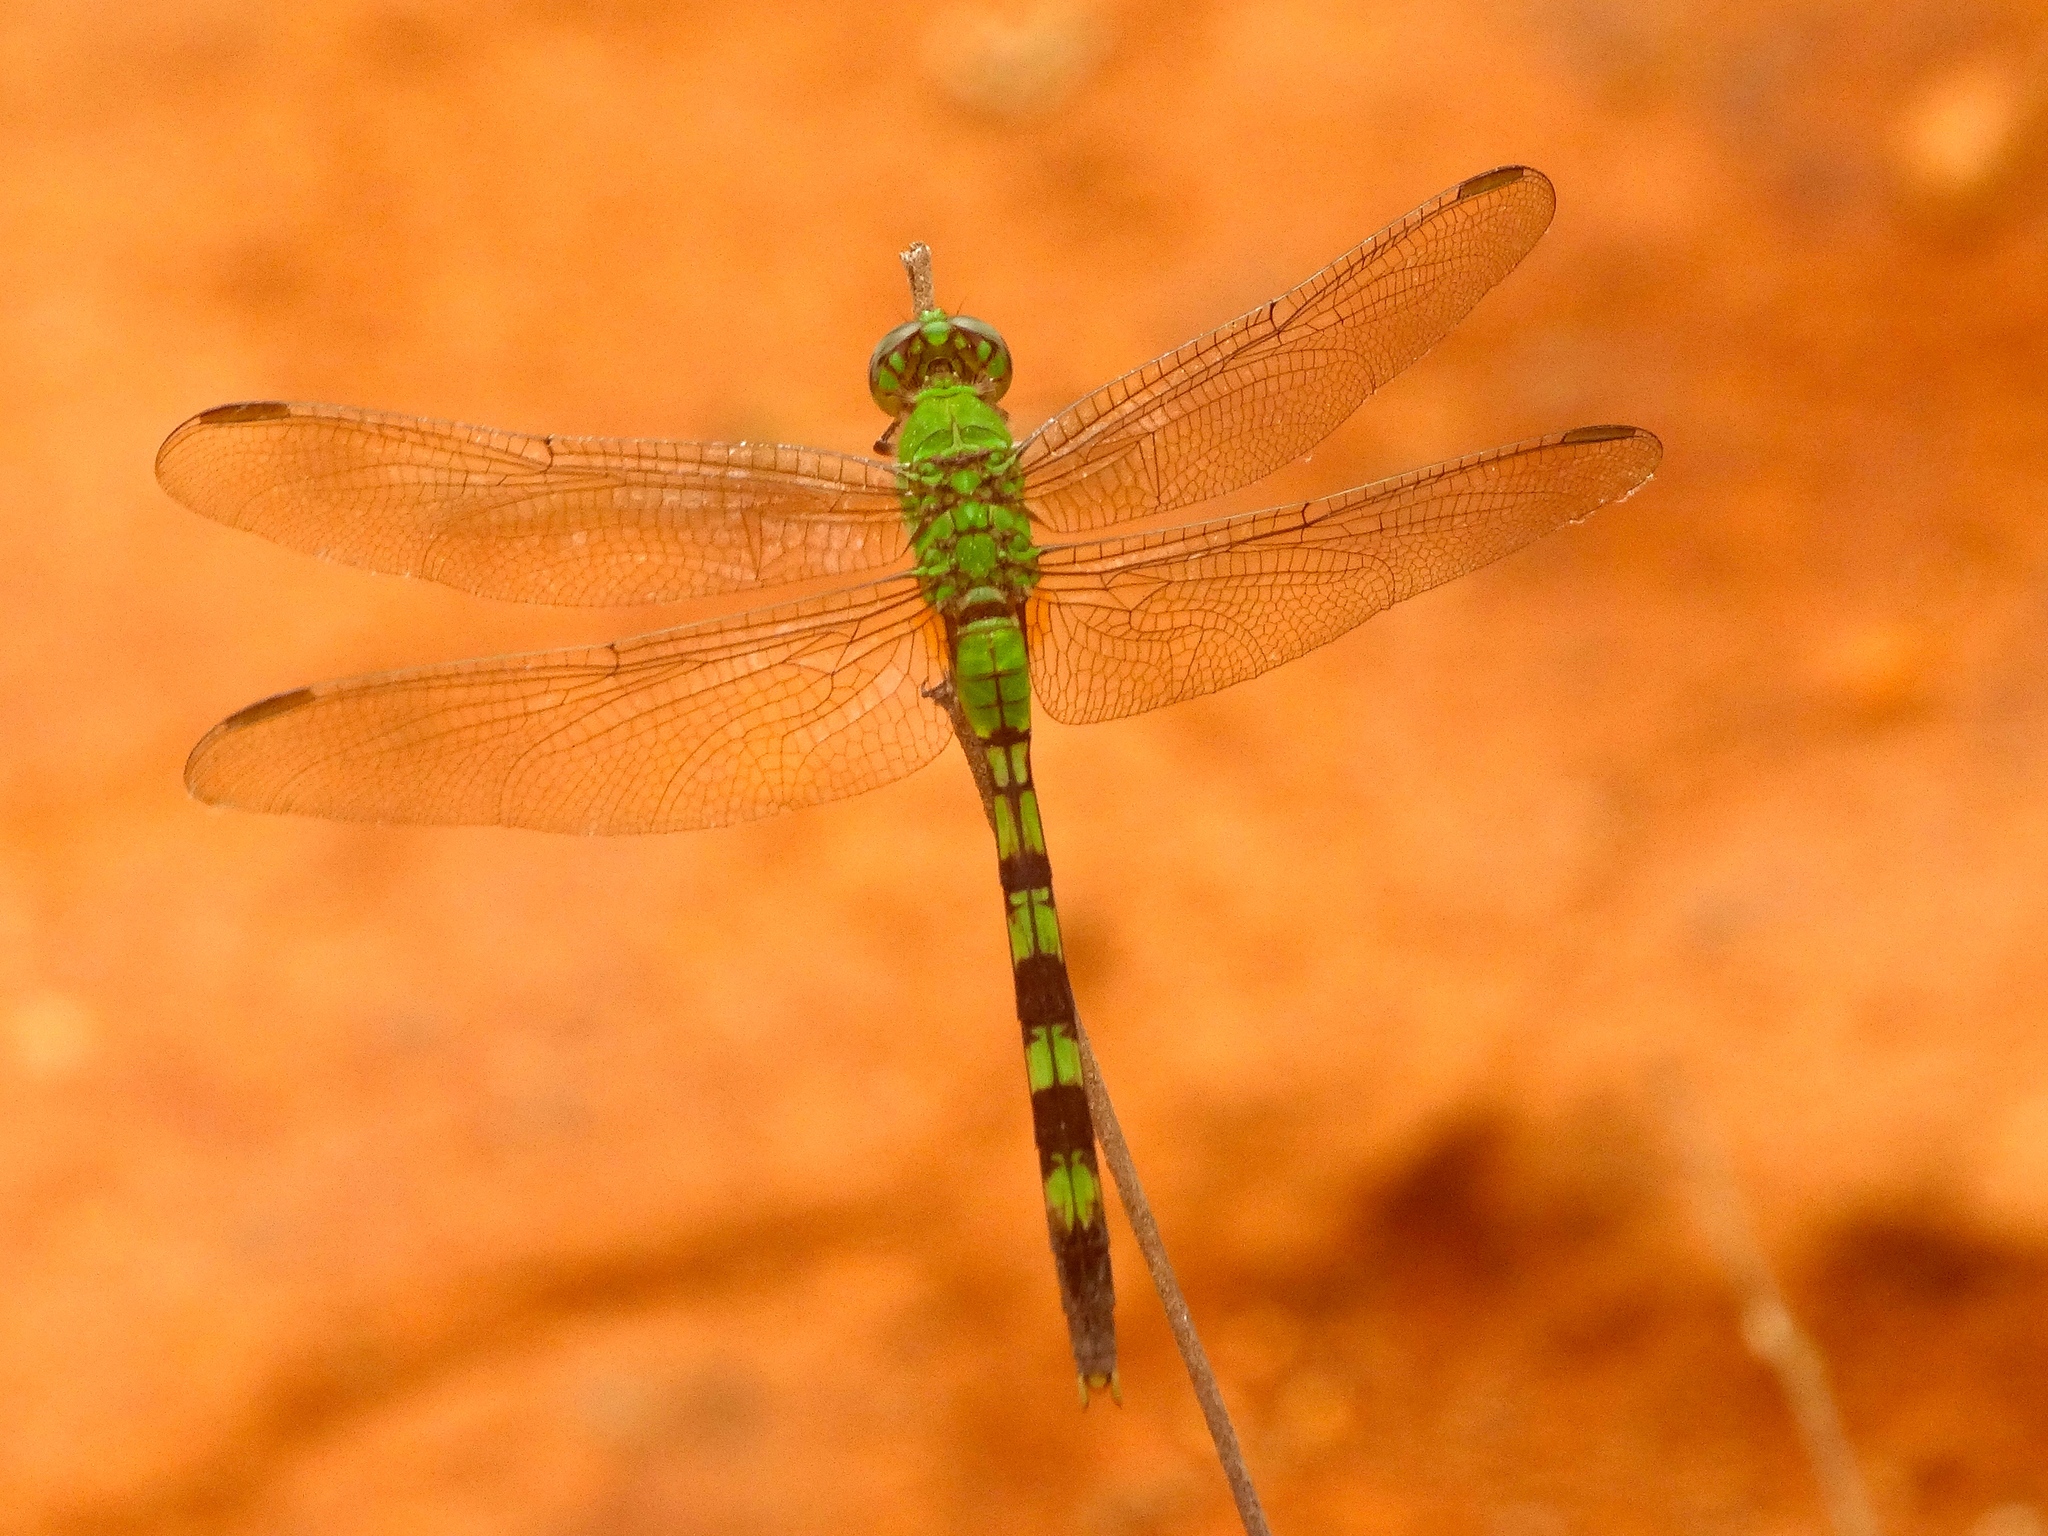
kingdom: Animalia
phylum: Arthropoda
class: Insecta
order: Odonata
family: Libellulidae
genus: Erythemis
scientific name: Erythemis vesiculosa
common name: Great pondhawk
